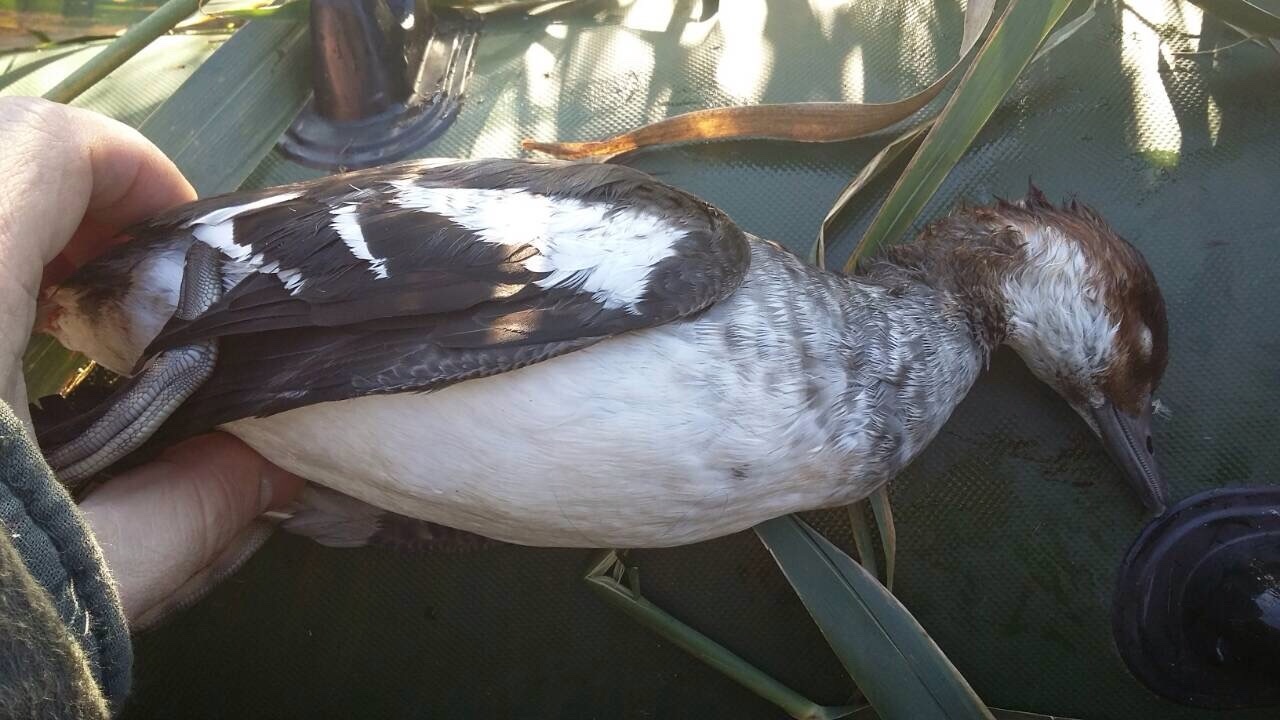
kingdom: Animalia
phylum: Chordata
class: Aves
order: Anseriformes
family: Anatidae
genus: Mergellus
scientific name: Mergellus albellus
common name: Smew
